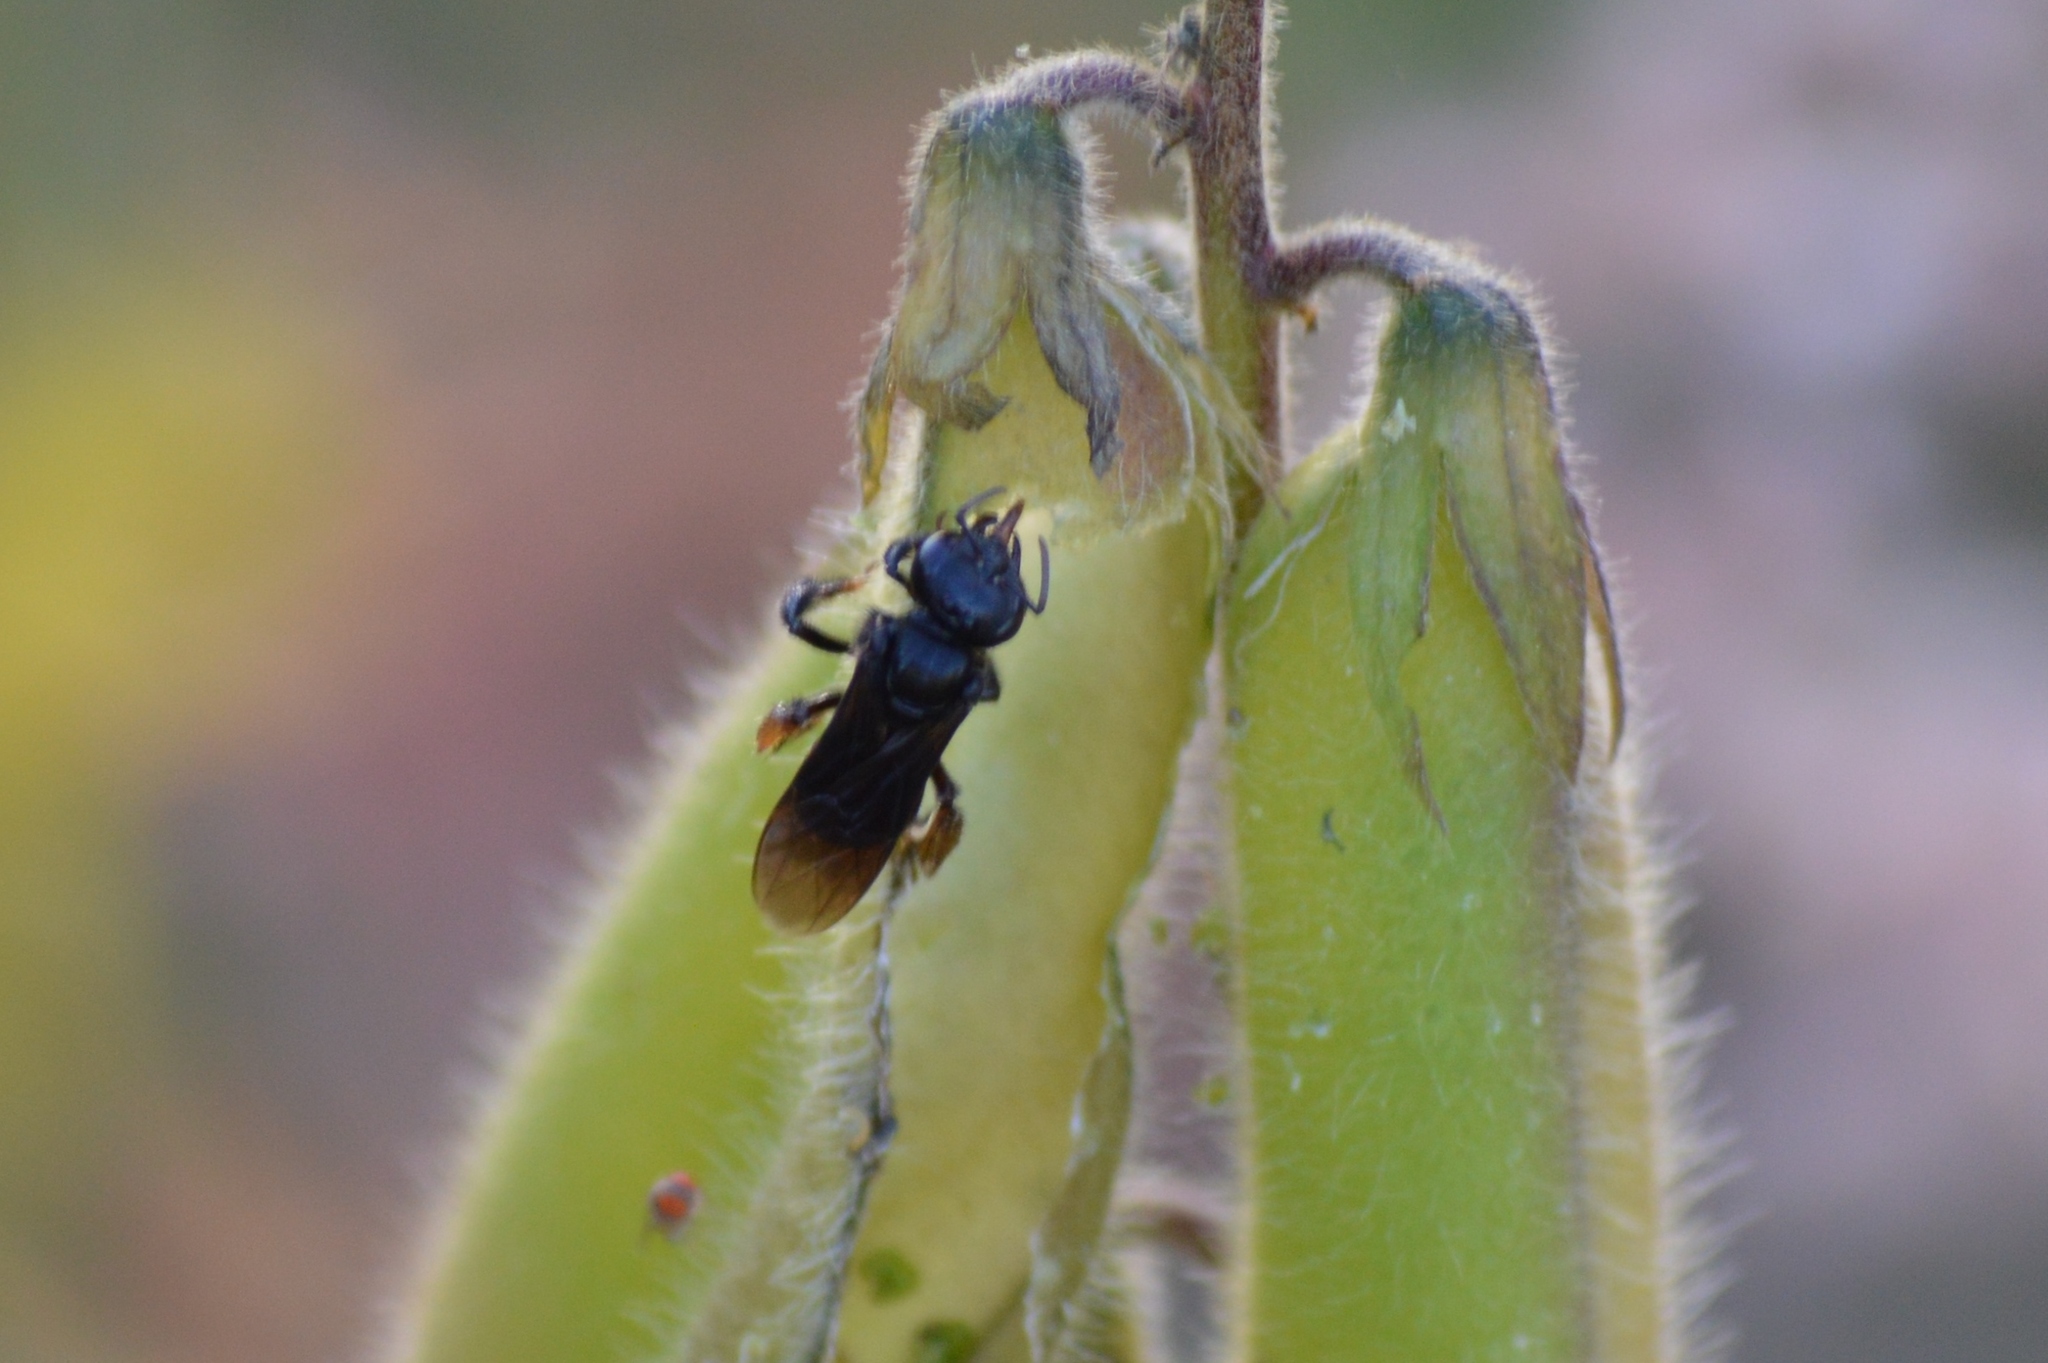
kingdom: Animalia
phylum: Arthropoda
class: Insecta
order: Hymenoptera
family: Apidae
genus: Trigona
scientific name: Trigona spinipes
